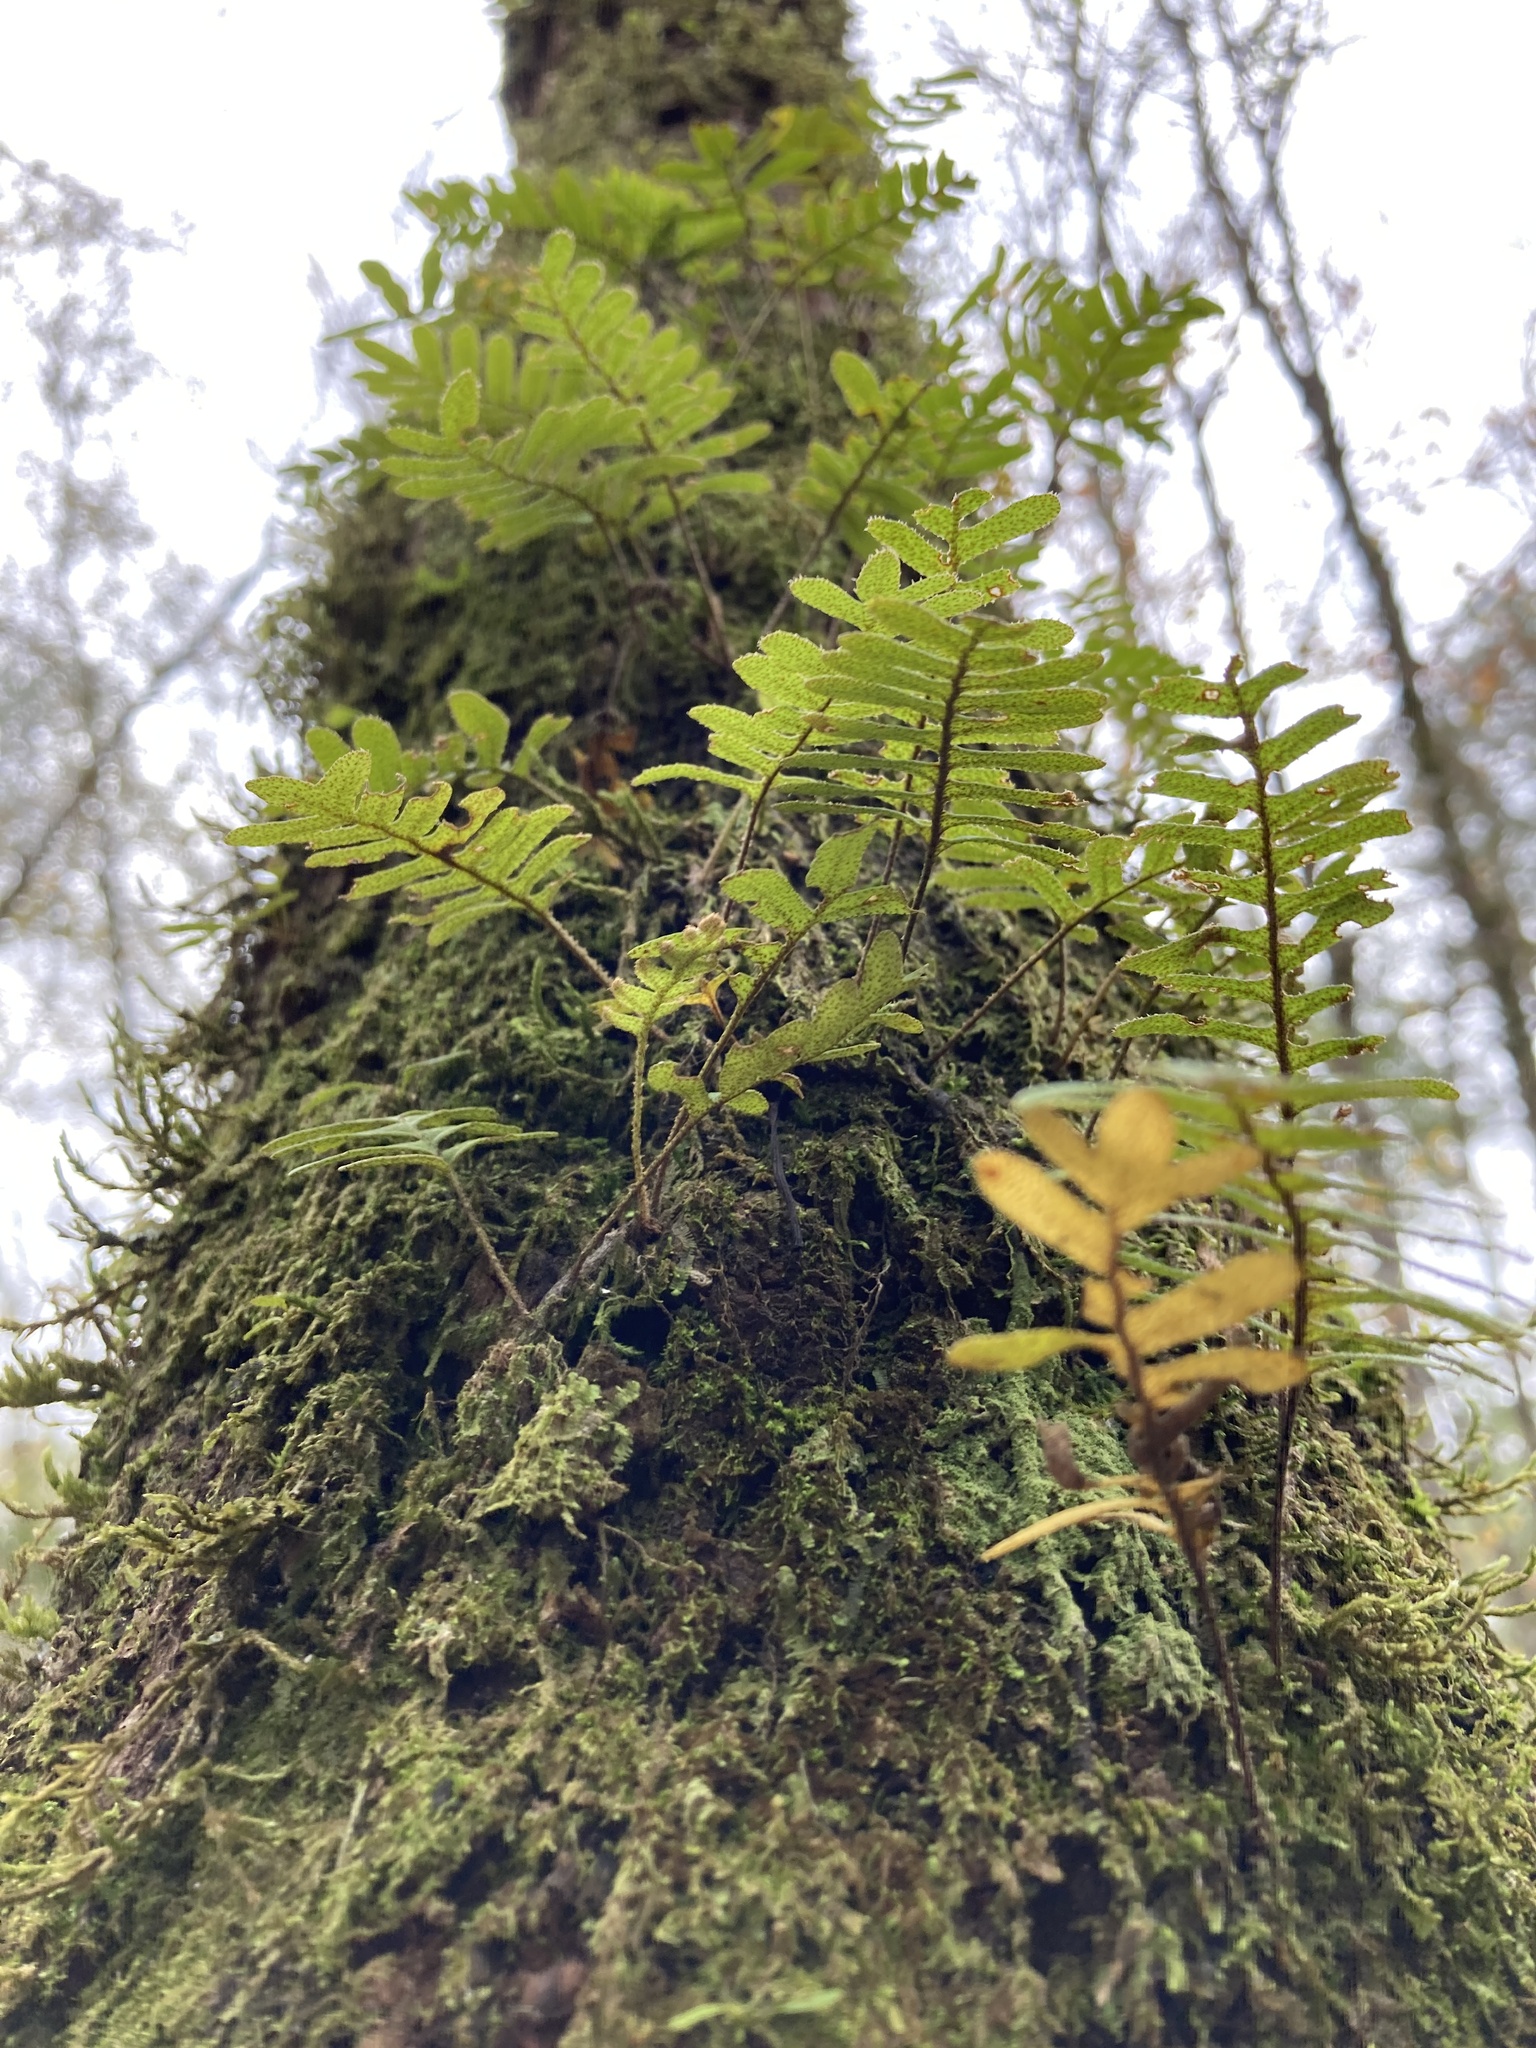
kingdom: Plantae
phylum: Tracheophyta
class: Polypodiopsida
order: Polypodiales
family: Polypodiaceae
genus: Pleopeltis
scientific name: Pleopeltis michauxiana
